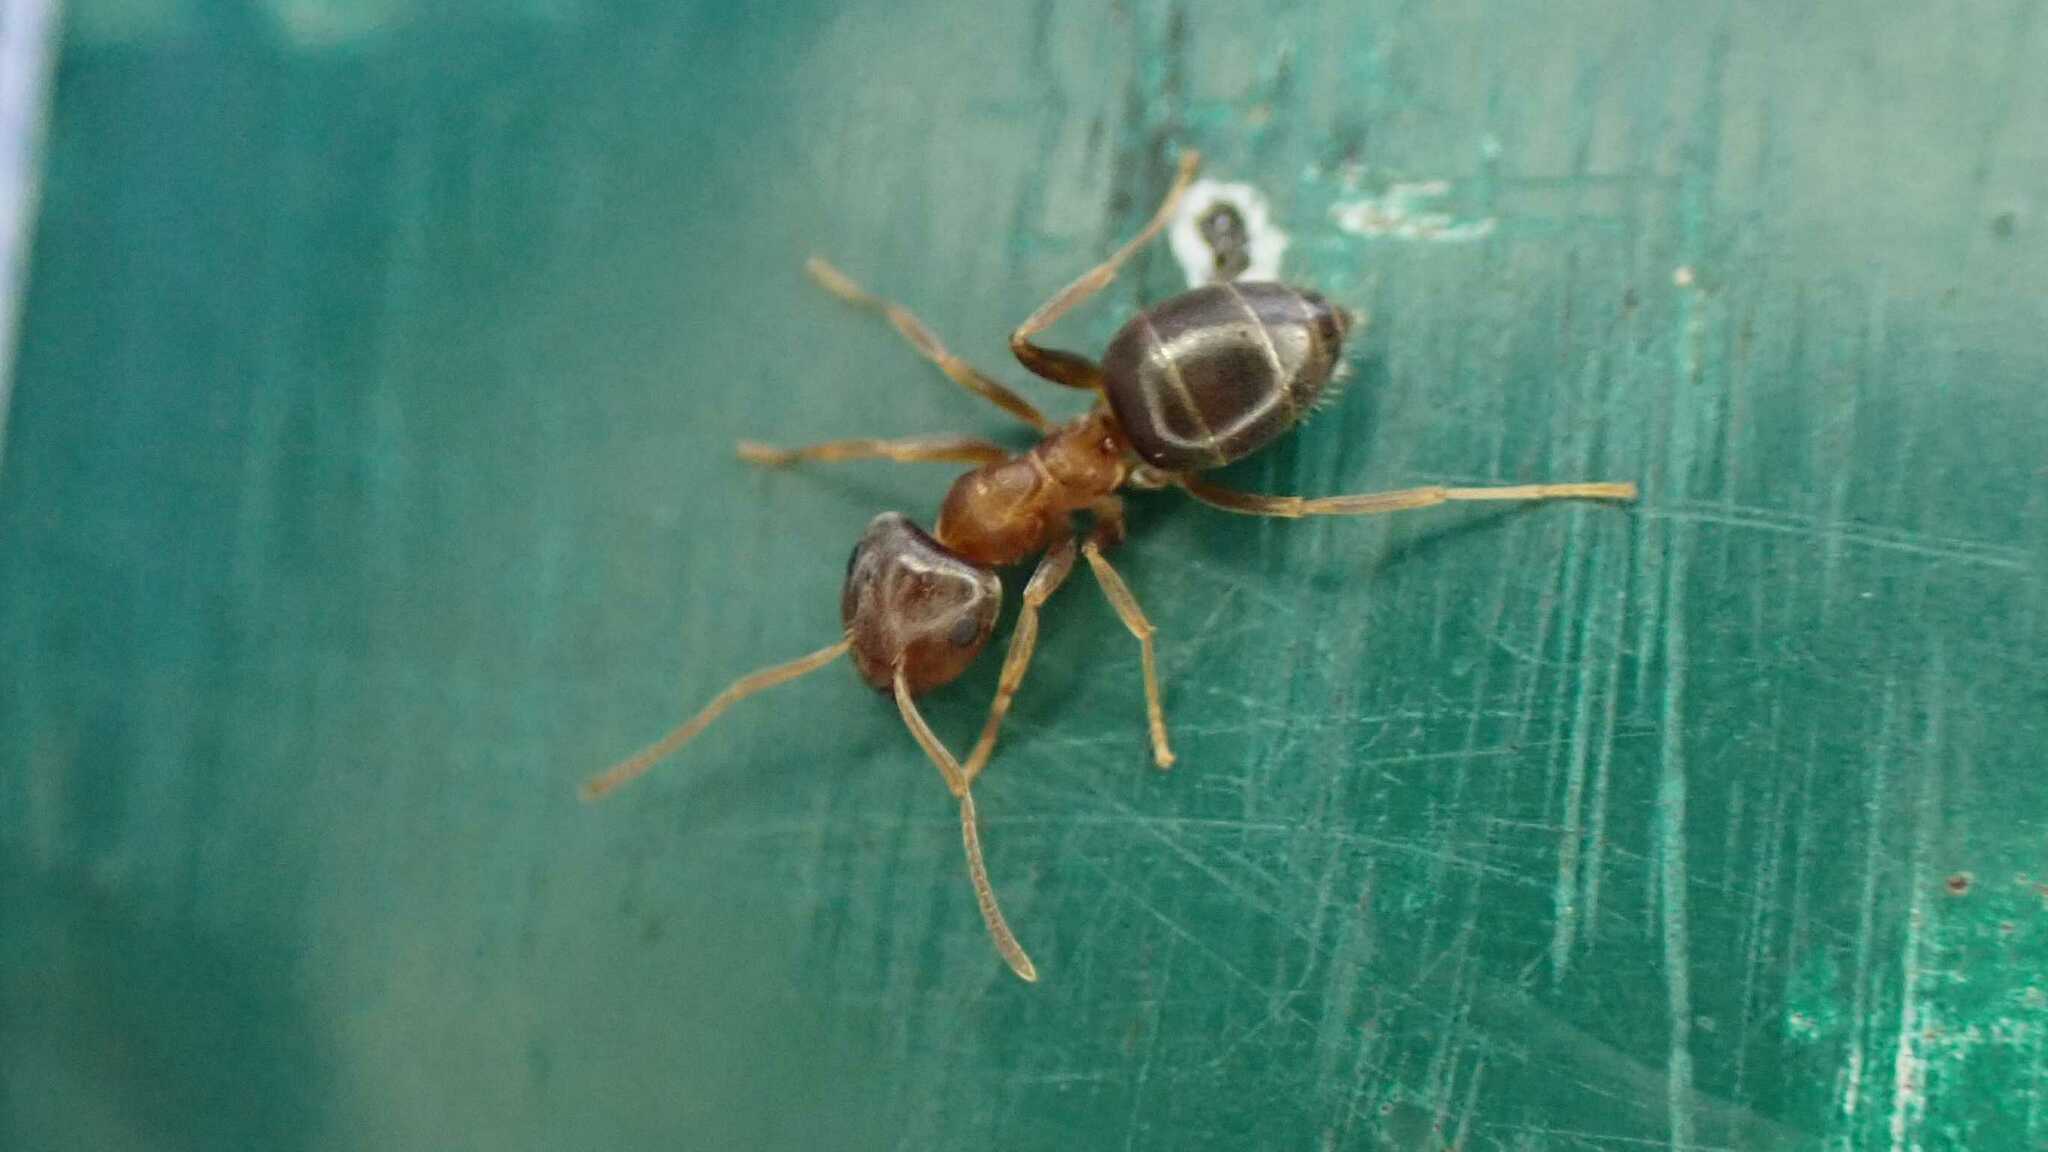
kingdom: Animalia
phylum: Arthropoda
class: Insecta
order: Hymenoptera
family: Formicidae
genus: Lasius
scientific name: Lasius brunneus
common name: Brown ant
